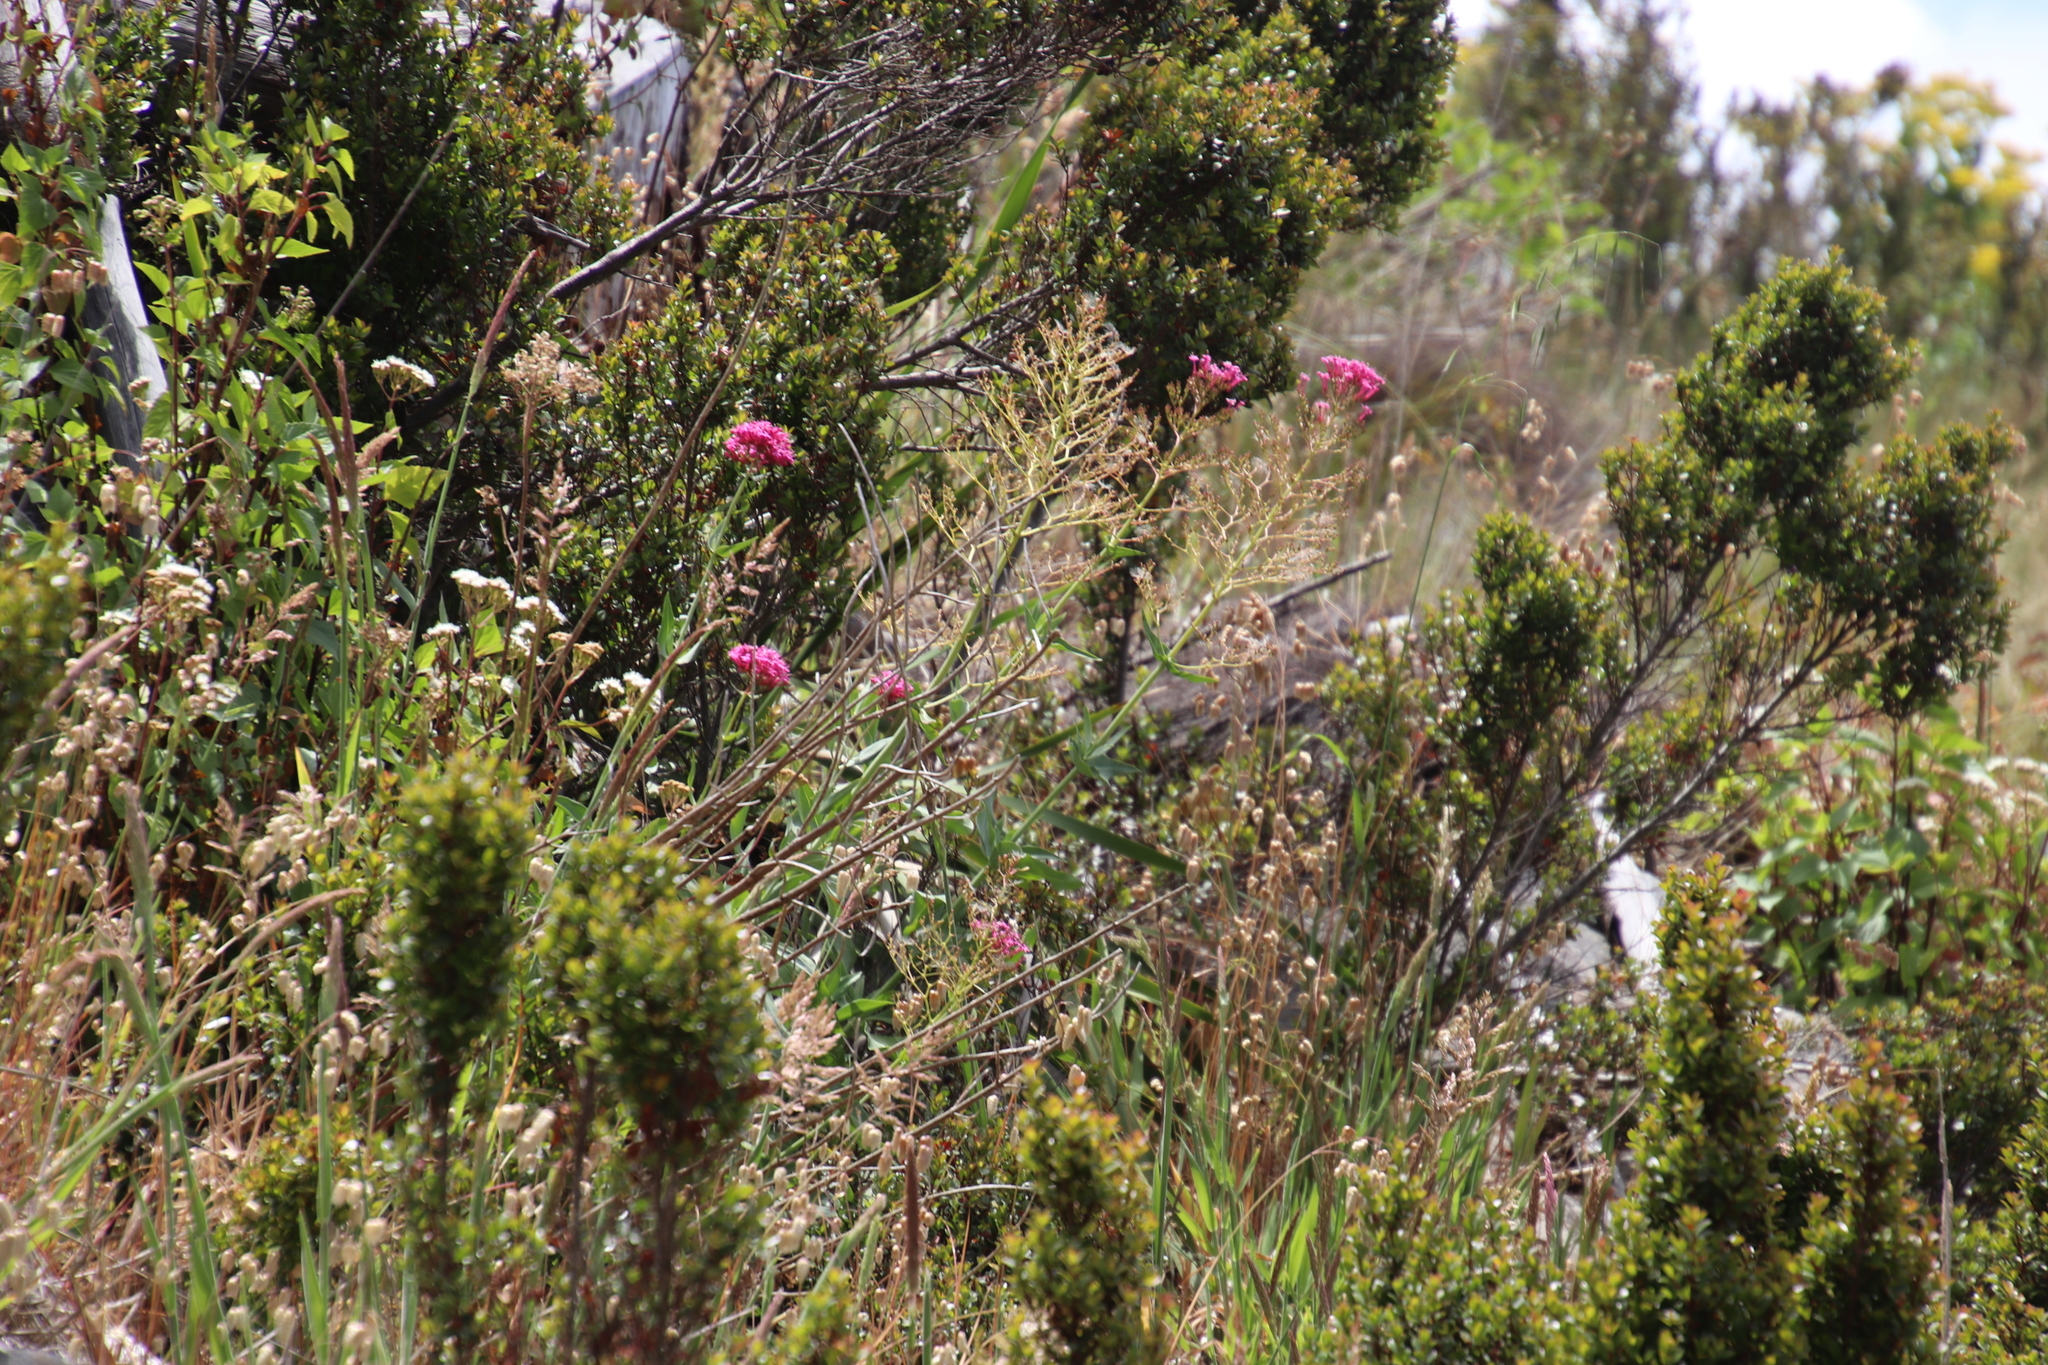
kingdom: Plantae
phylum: Tracheophyta
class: Magnoliopsida
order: Dipsacales
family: Caprifoliaceae
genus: Centranthus
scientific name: Centranthus ruber
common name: Red valerian
